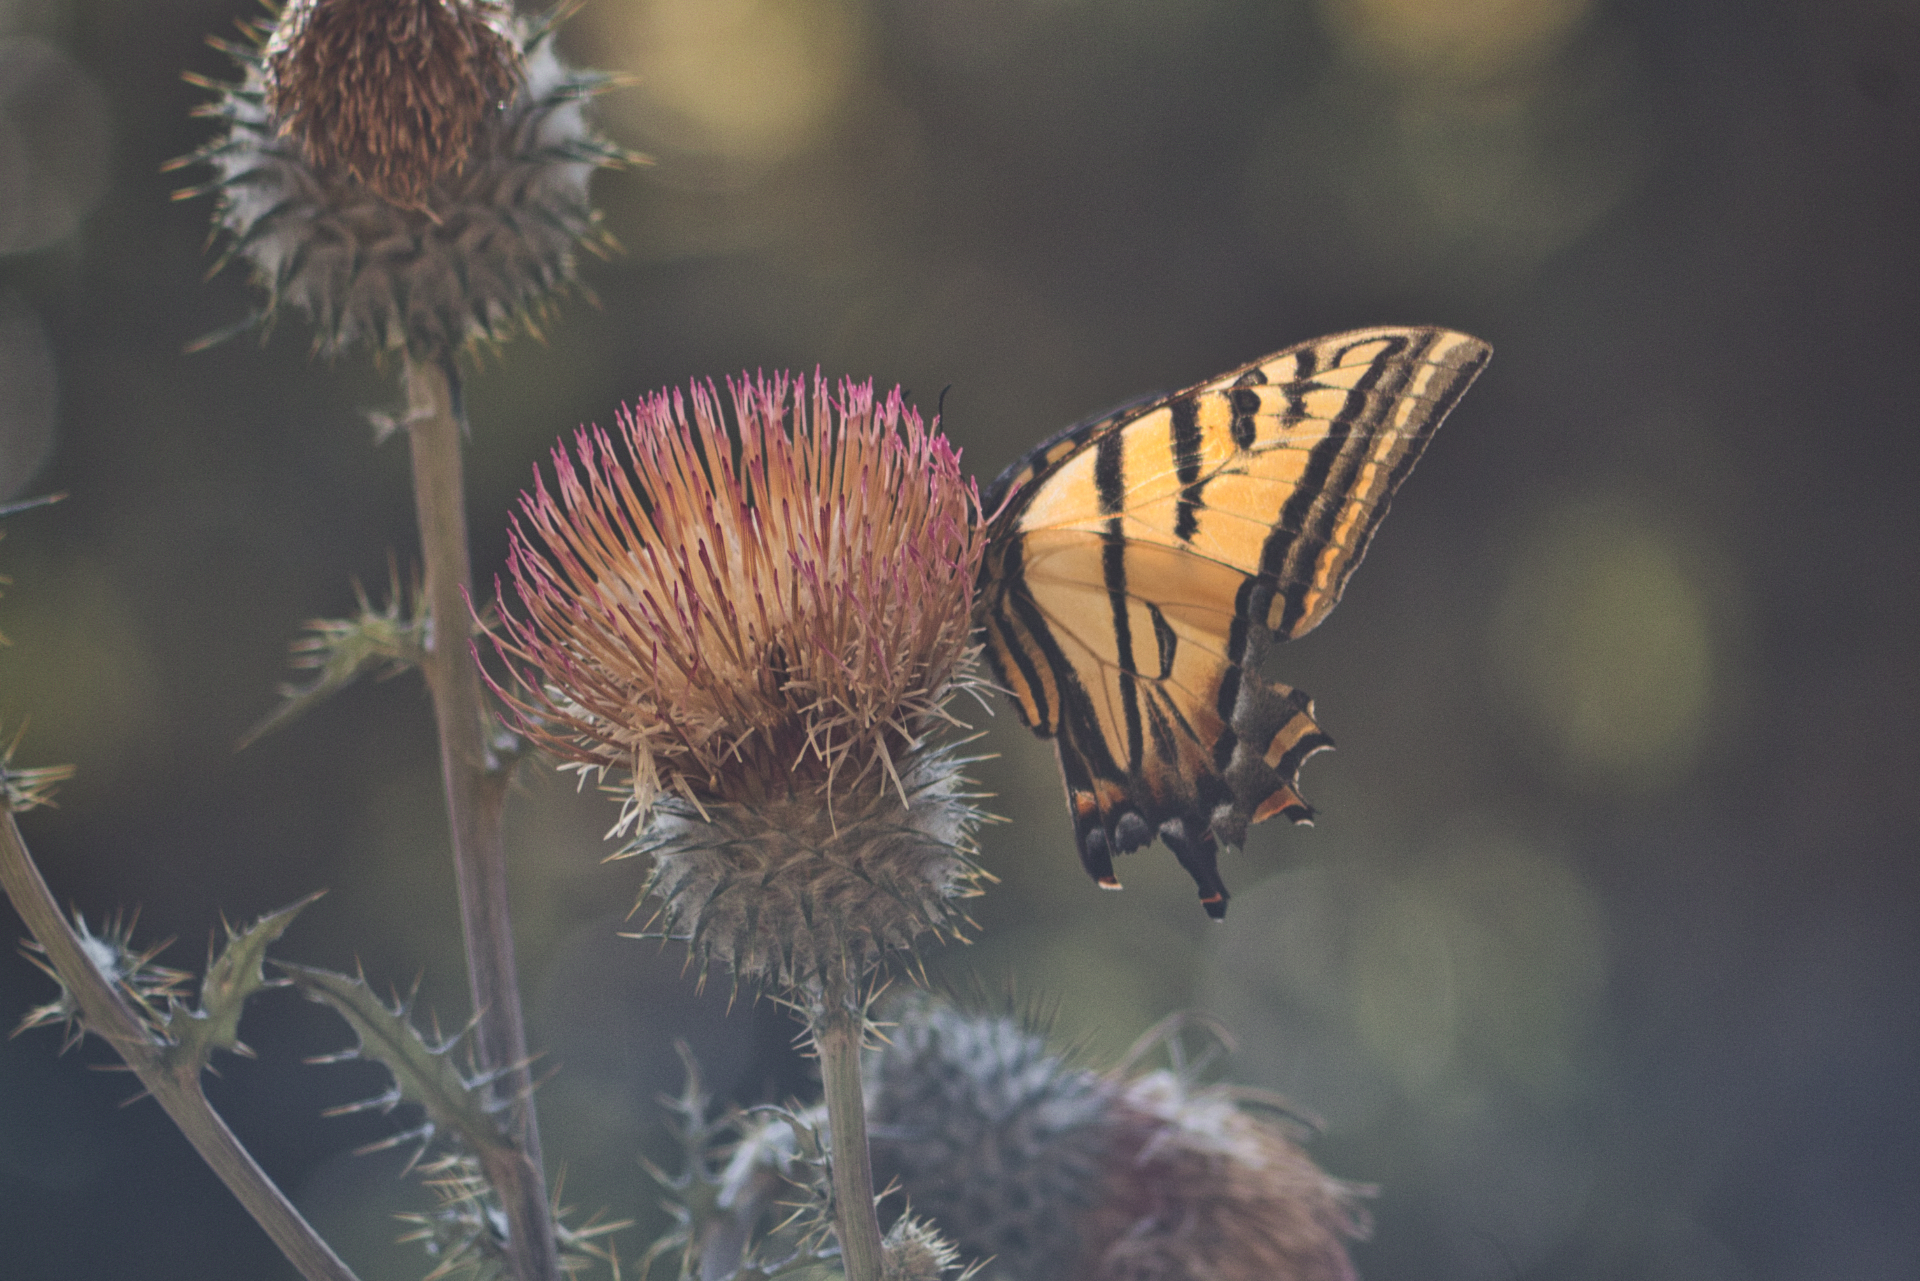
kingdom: Animalia
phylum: Arthropoda
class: Insecta
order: Lepidoptera
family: Papilionidae
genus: Papilio
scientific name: Papilio multicaudata
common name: Two-tailed tiger swallowtail
